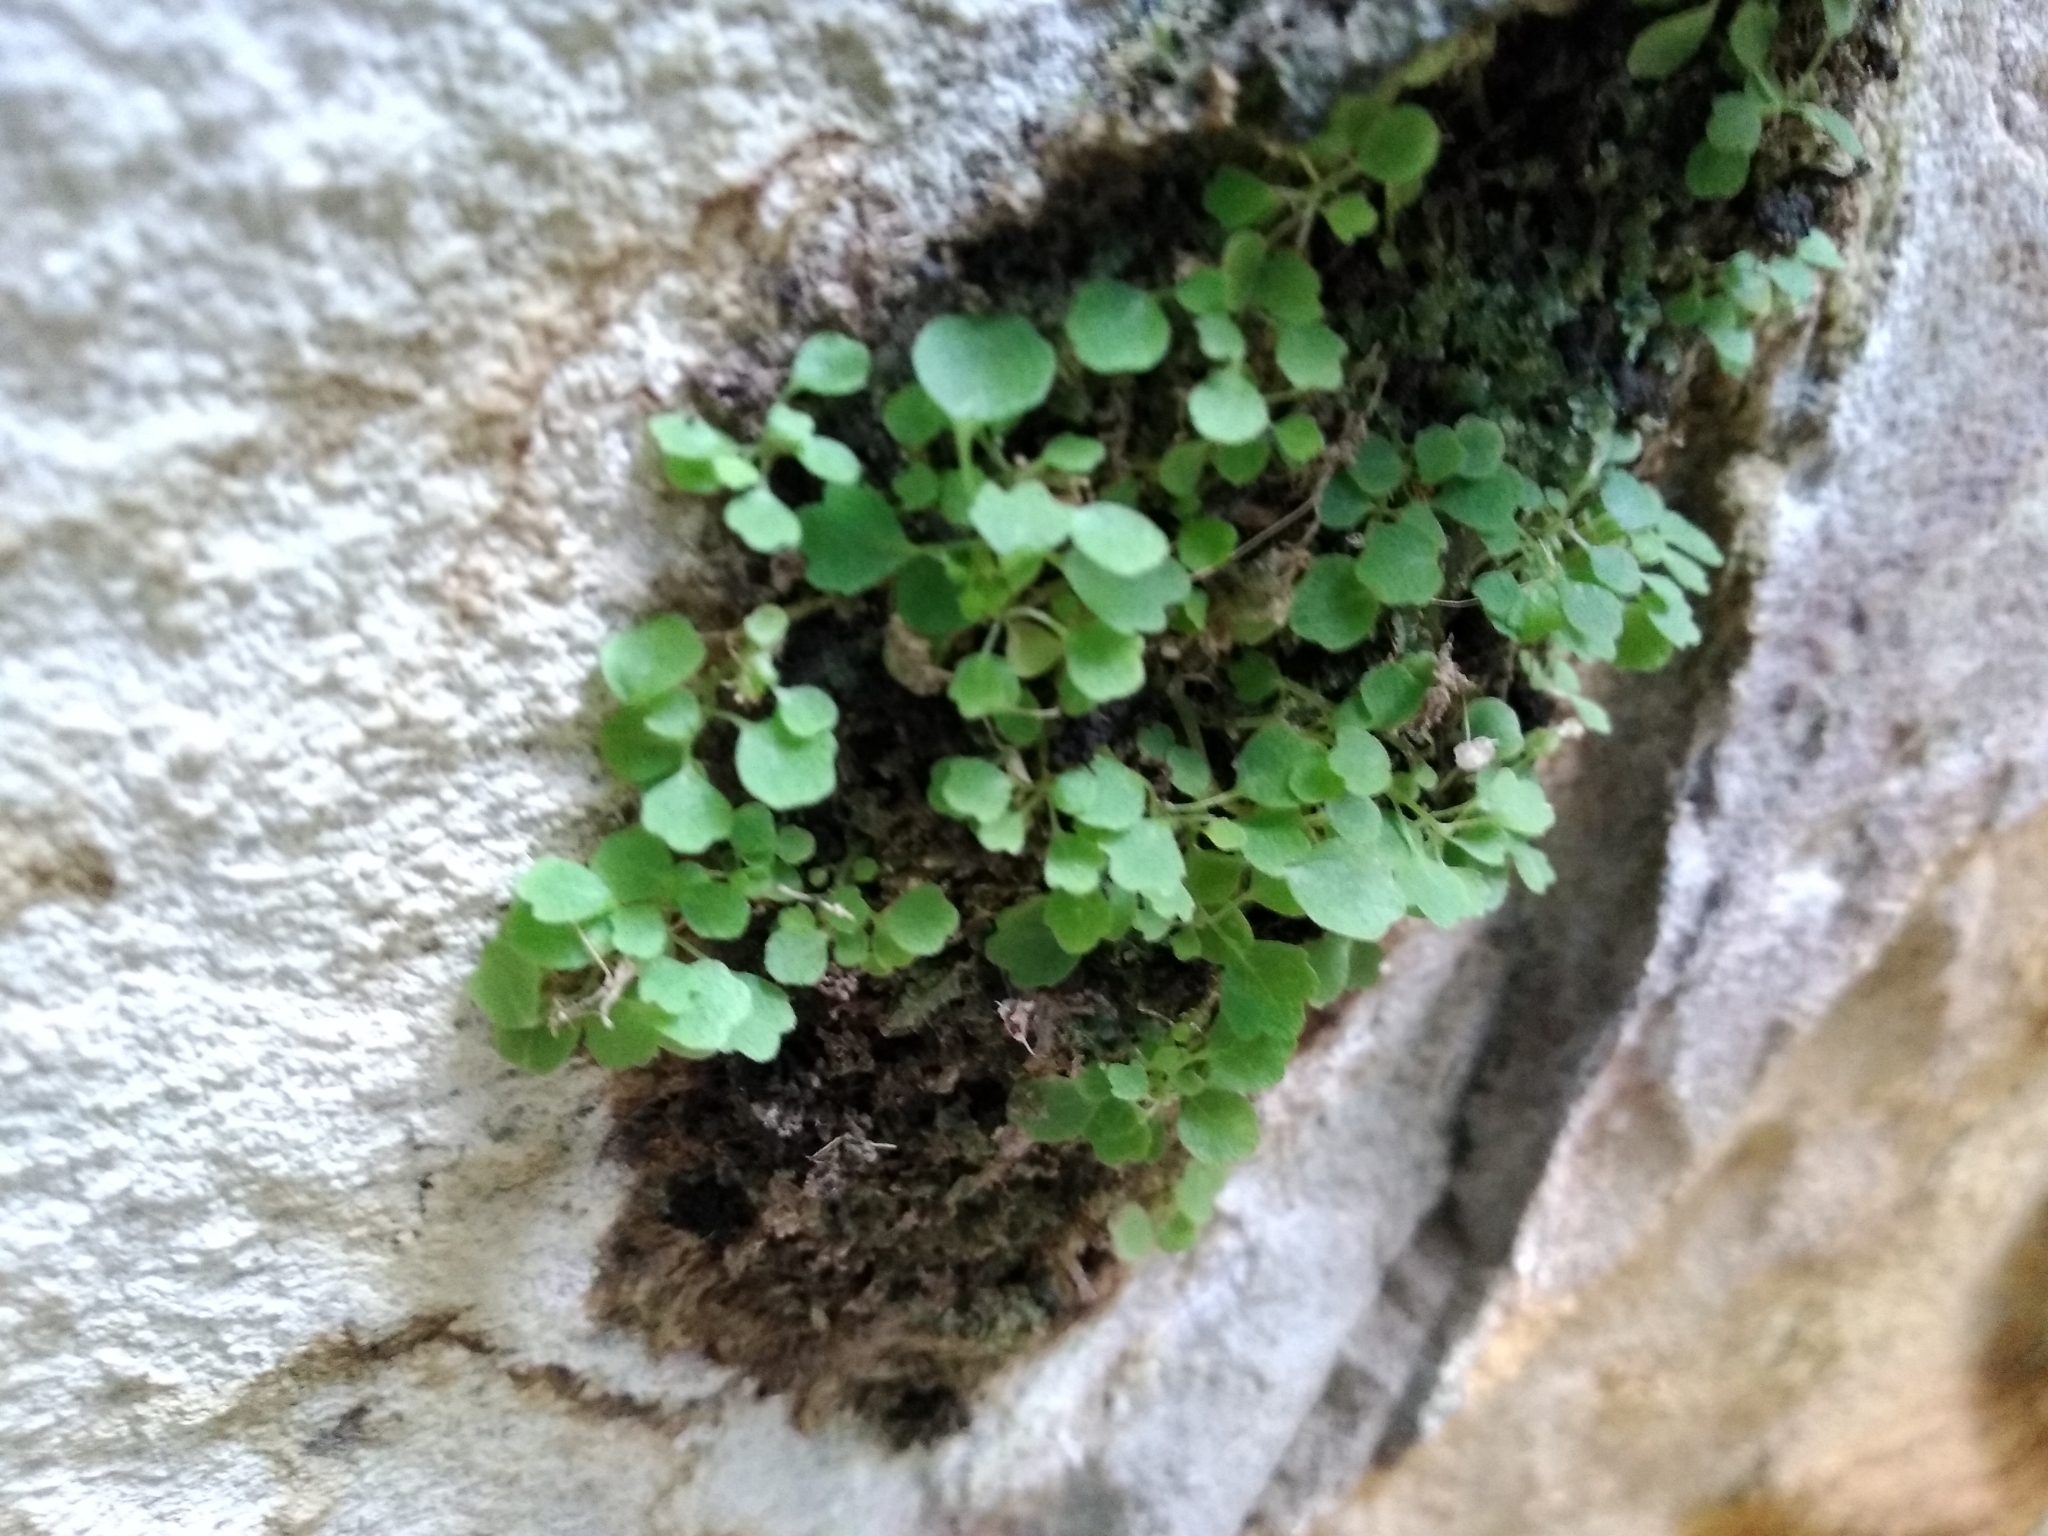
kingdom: Plantae
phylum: Tracheophyta
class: Magnoliopsida
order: Asterales
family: Campanulaceae
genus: Wimmerella
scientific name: Wimmerella pygmaea
